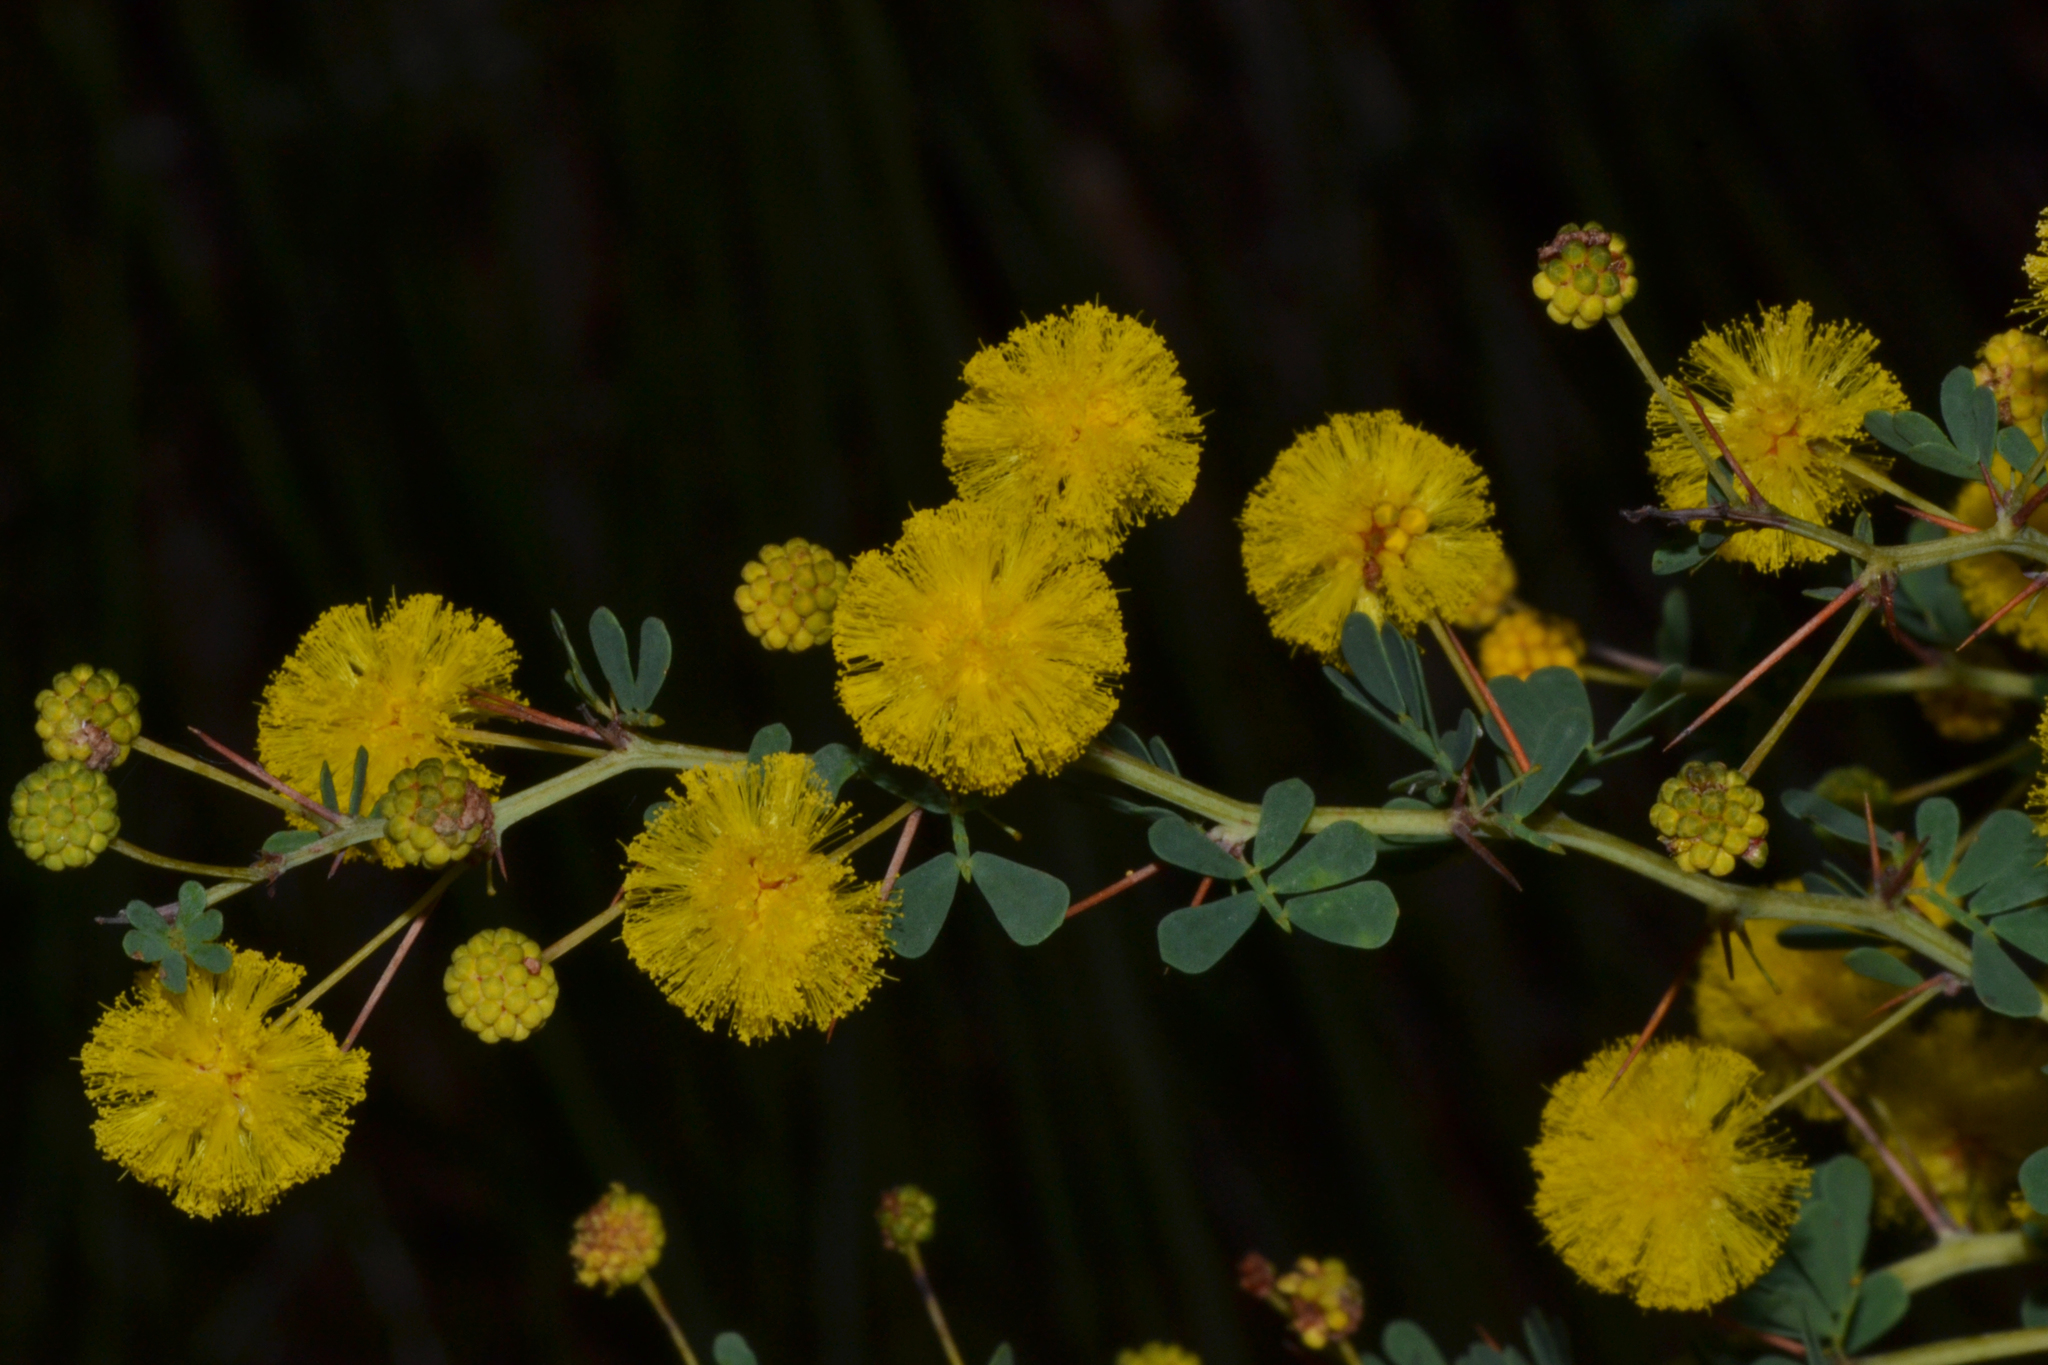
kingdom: Plantae
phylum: Tracheophyta
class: Magnoliopsida
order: Fabales
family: Fabaceae
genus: Acacia
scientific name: Acacia pulchella
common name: Prickly moses
